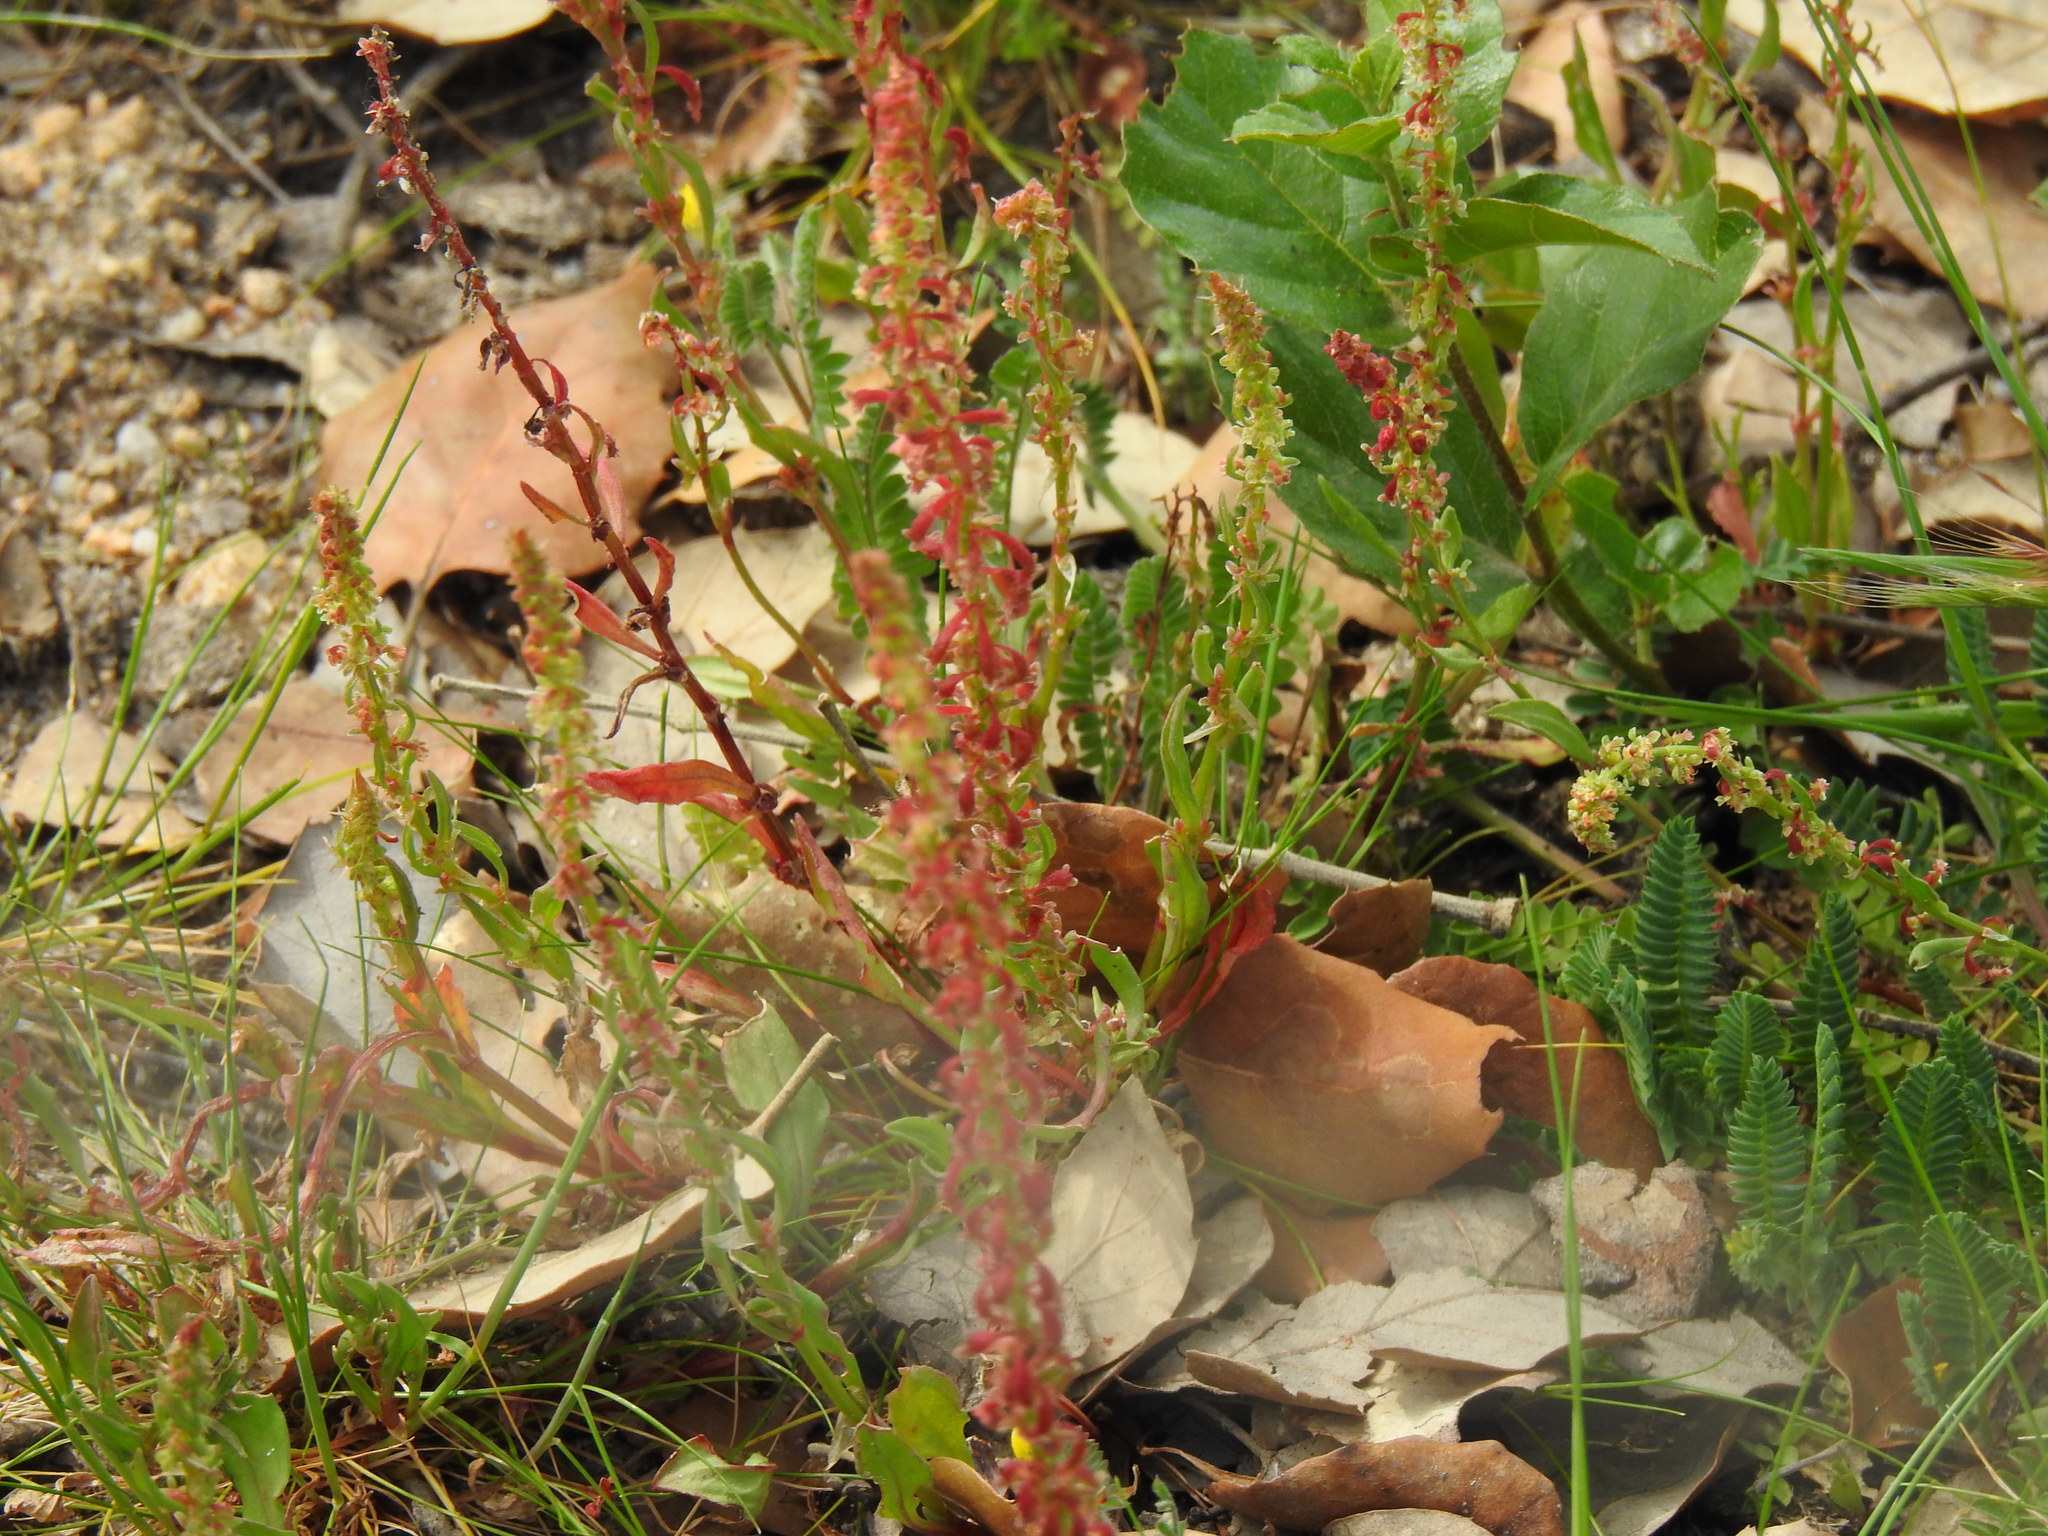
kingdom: Plantae
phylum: Tracheophyta
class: Magnoliopsida
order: Caryophyllales
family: Polygonaceae
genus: Rumex
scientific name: Rumex bucephalophorus
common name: Red dock
